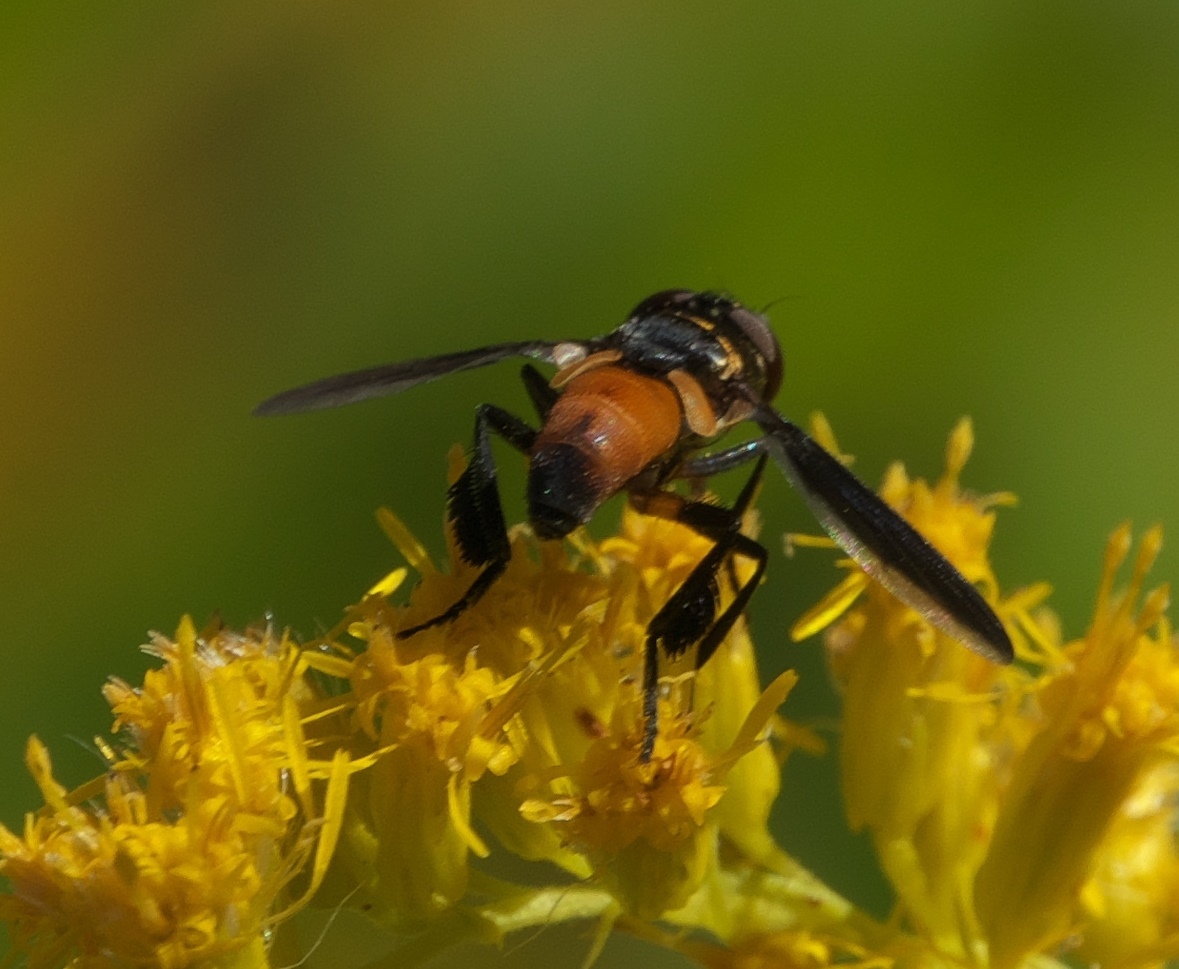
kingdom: Animalia
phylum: Arthropoda
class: Insecta
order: Diptera
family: Tachinidae
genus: Trichopoda
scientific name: Trichopoda pennipes
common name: Tachinid fly
